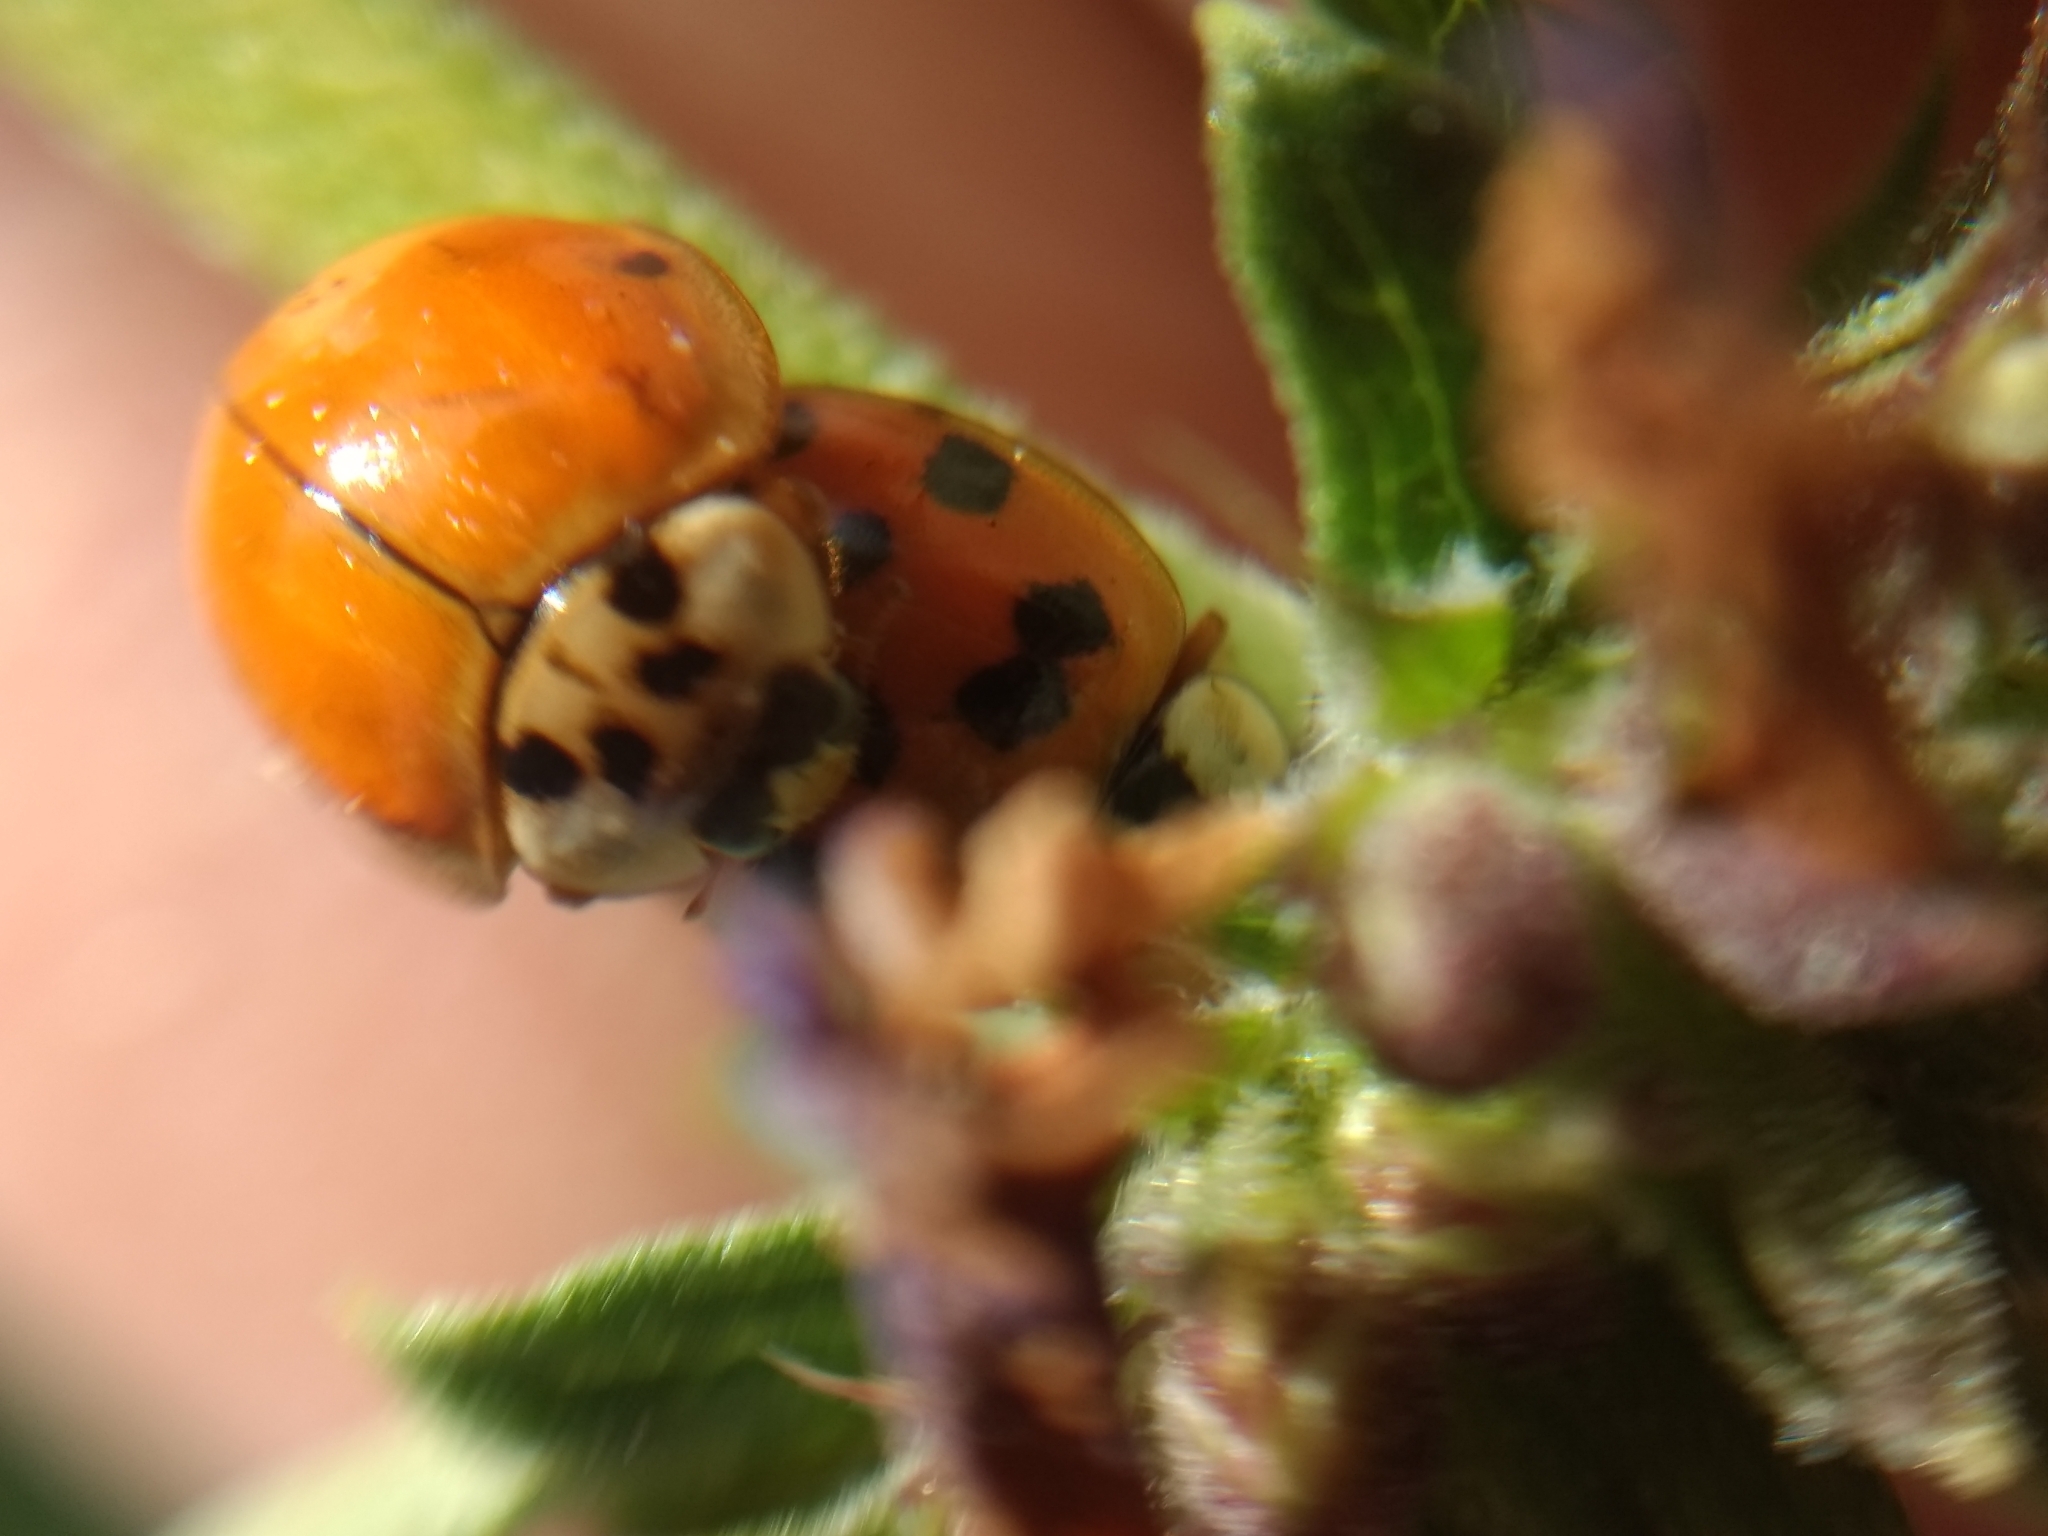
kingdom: Animalia
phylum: Arthropoda
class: Insecta
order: Coleoptera
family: Coccinellidae
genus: Harmonia
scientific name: Harmonia axyridis
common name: Harlequin ladybird
